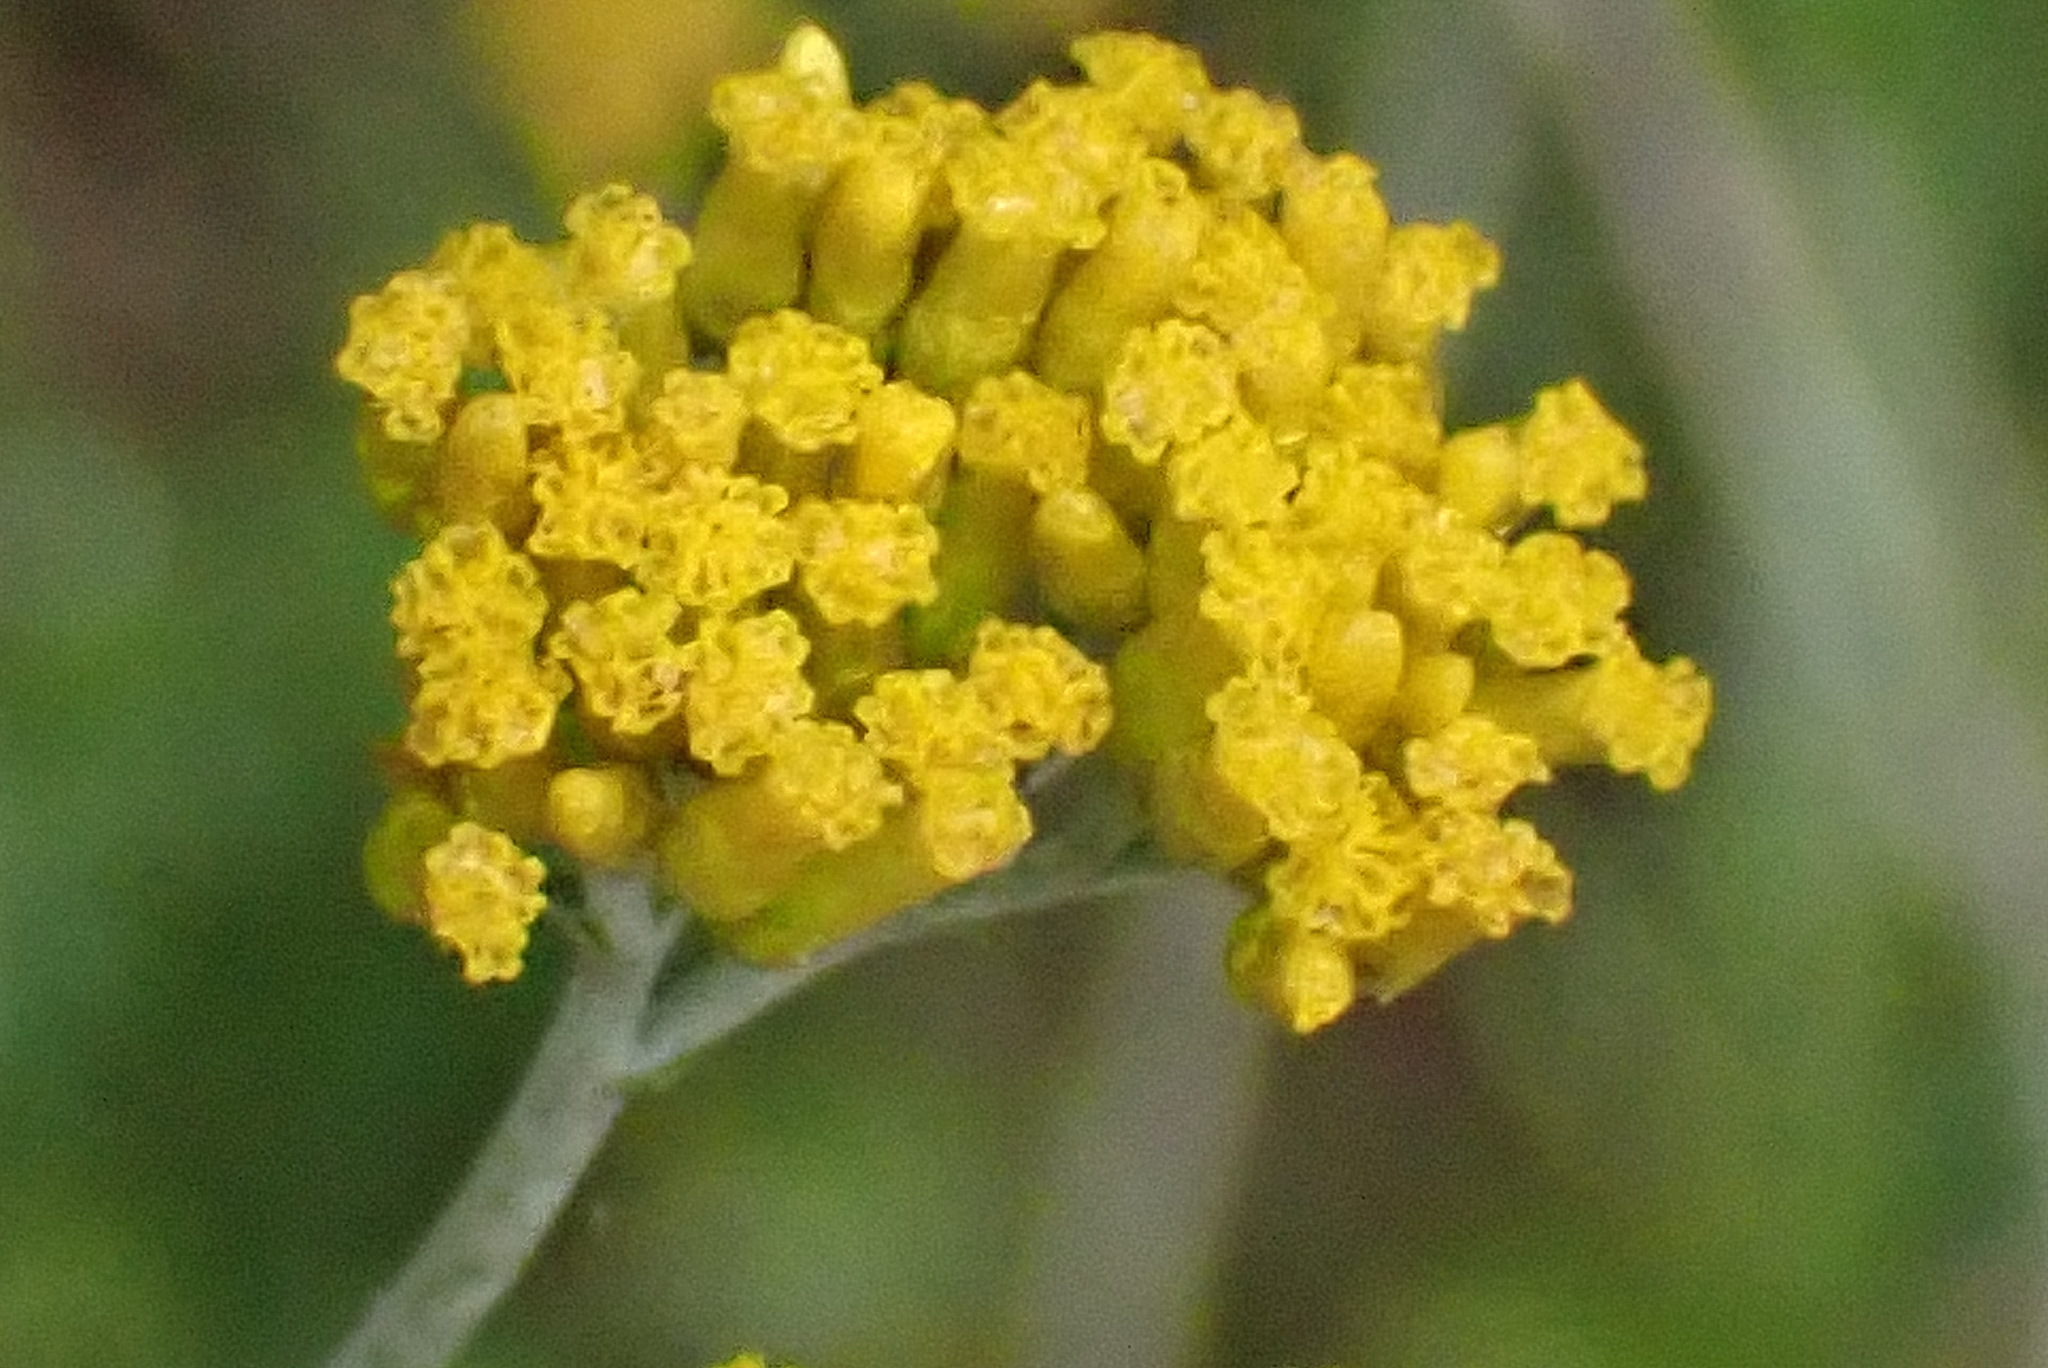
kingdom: Plantae
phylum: Tracheophyta
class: Magnoliopsida
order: Asterales
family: Asteraceae
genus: Helichrysum
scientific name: Helichrysum cymosum
